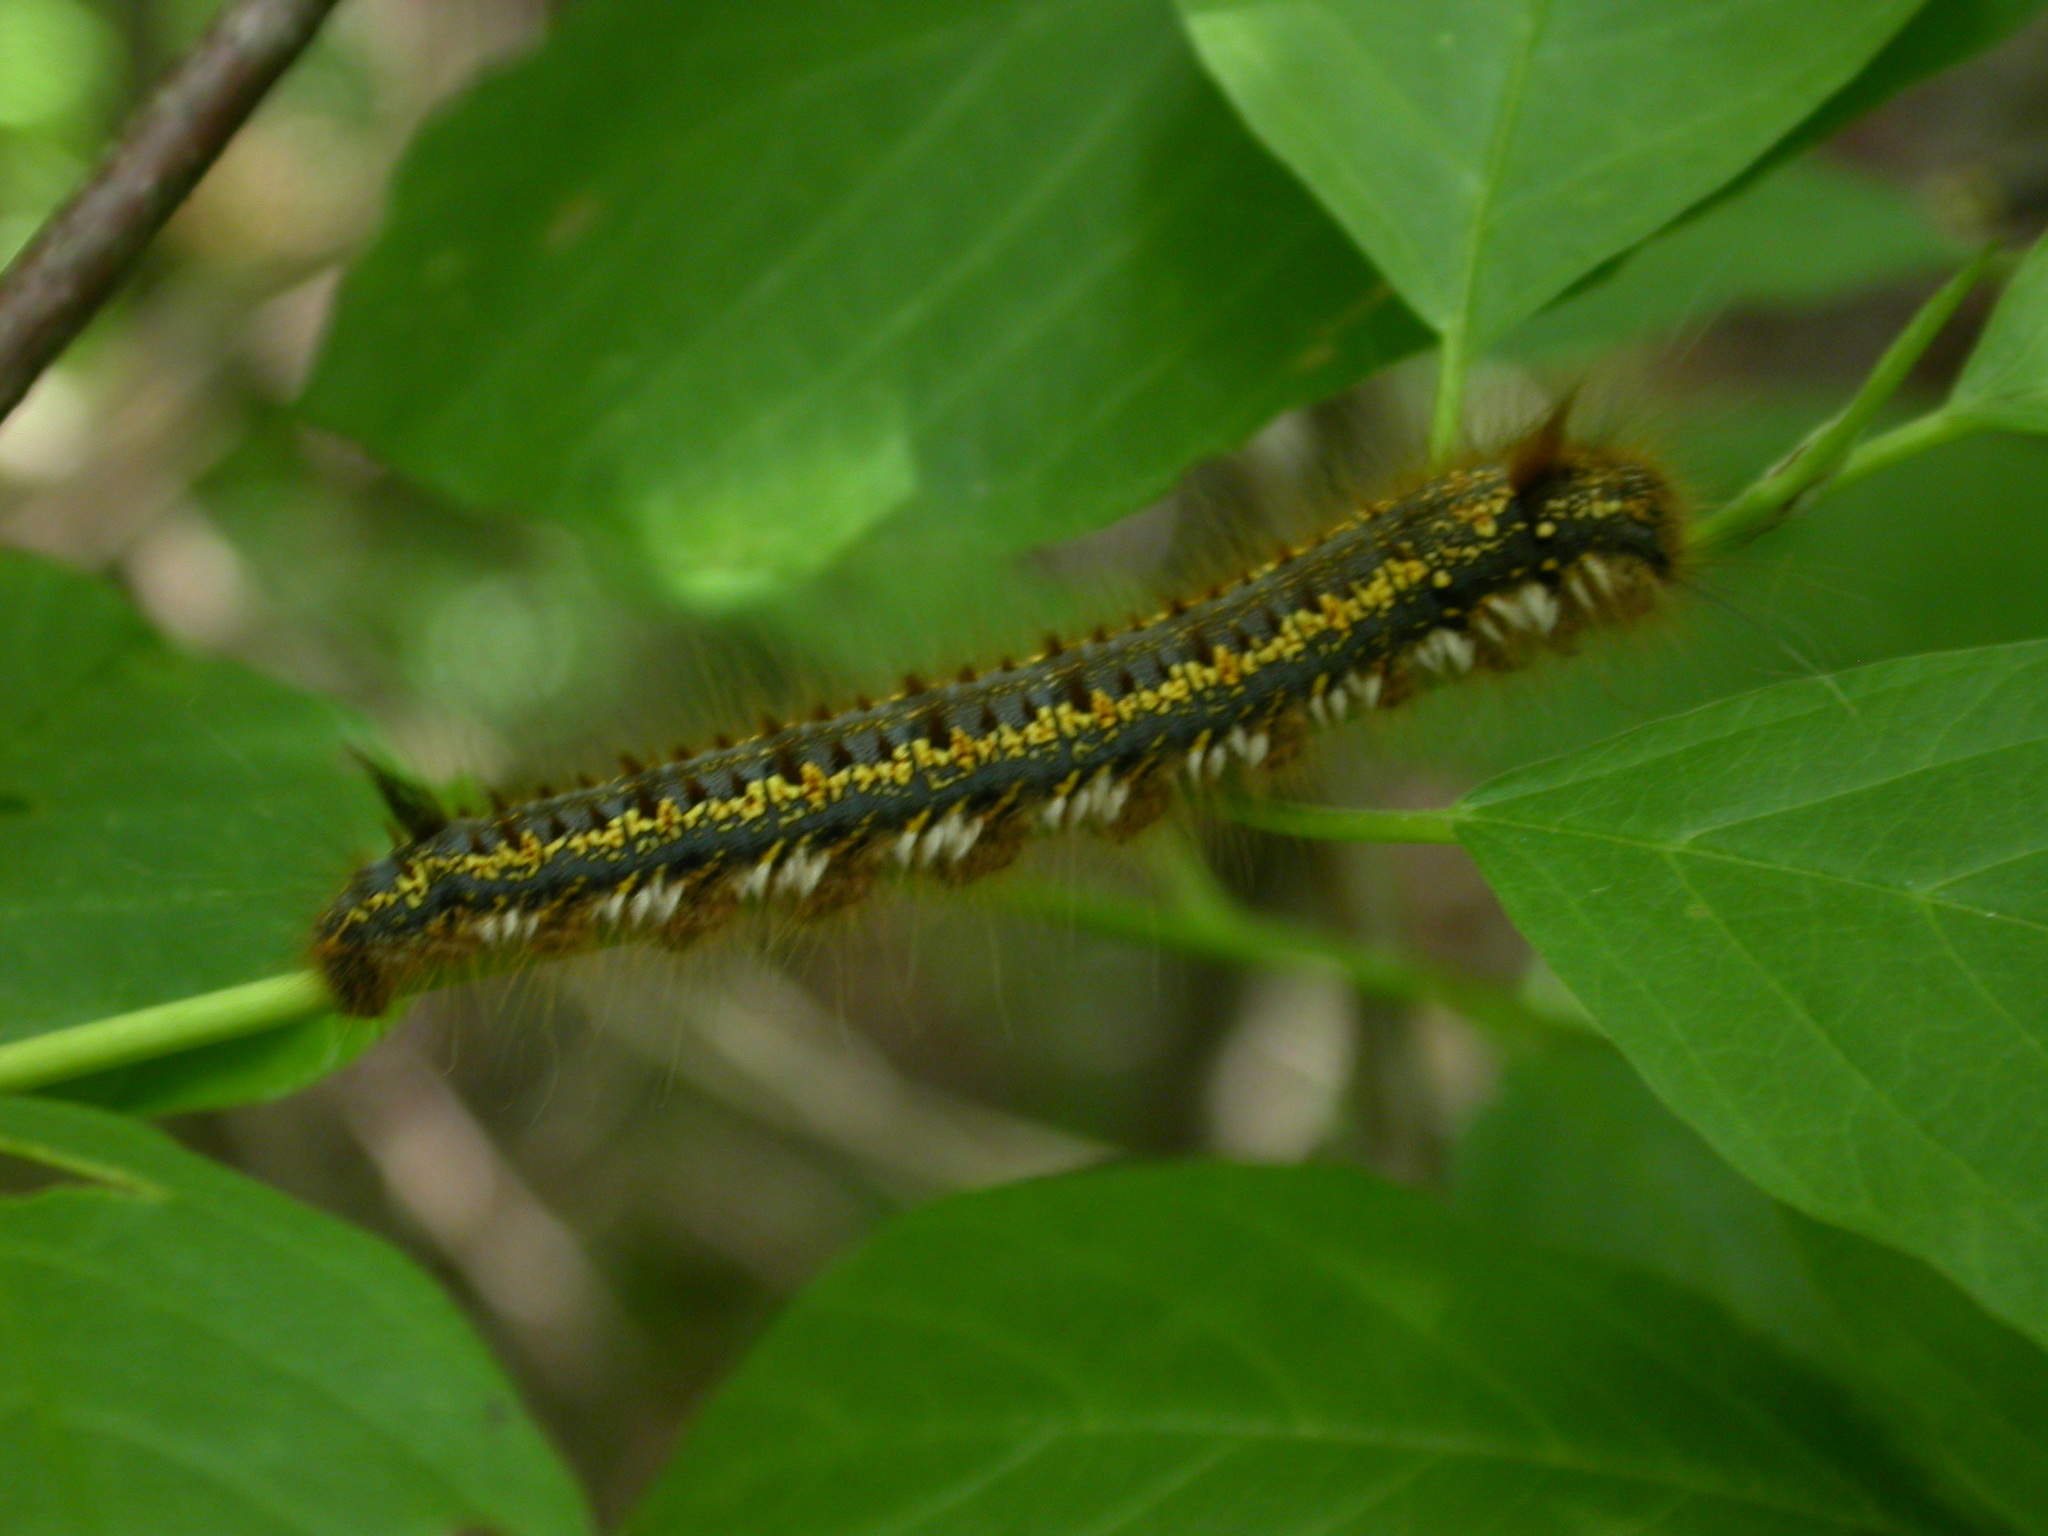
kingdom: Animalia
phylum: Arthropoda
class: Insecta
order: Lepidoptera
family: Lasiocampidae
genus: Euthrix
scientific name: Euthrix potatoria
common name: Drinker
